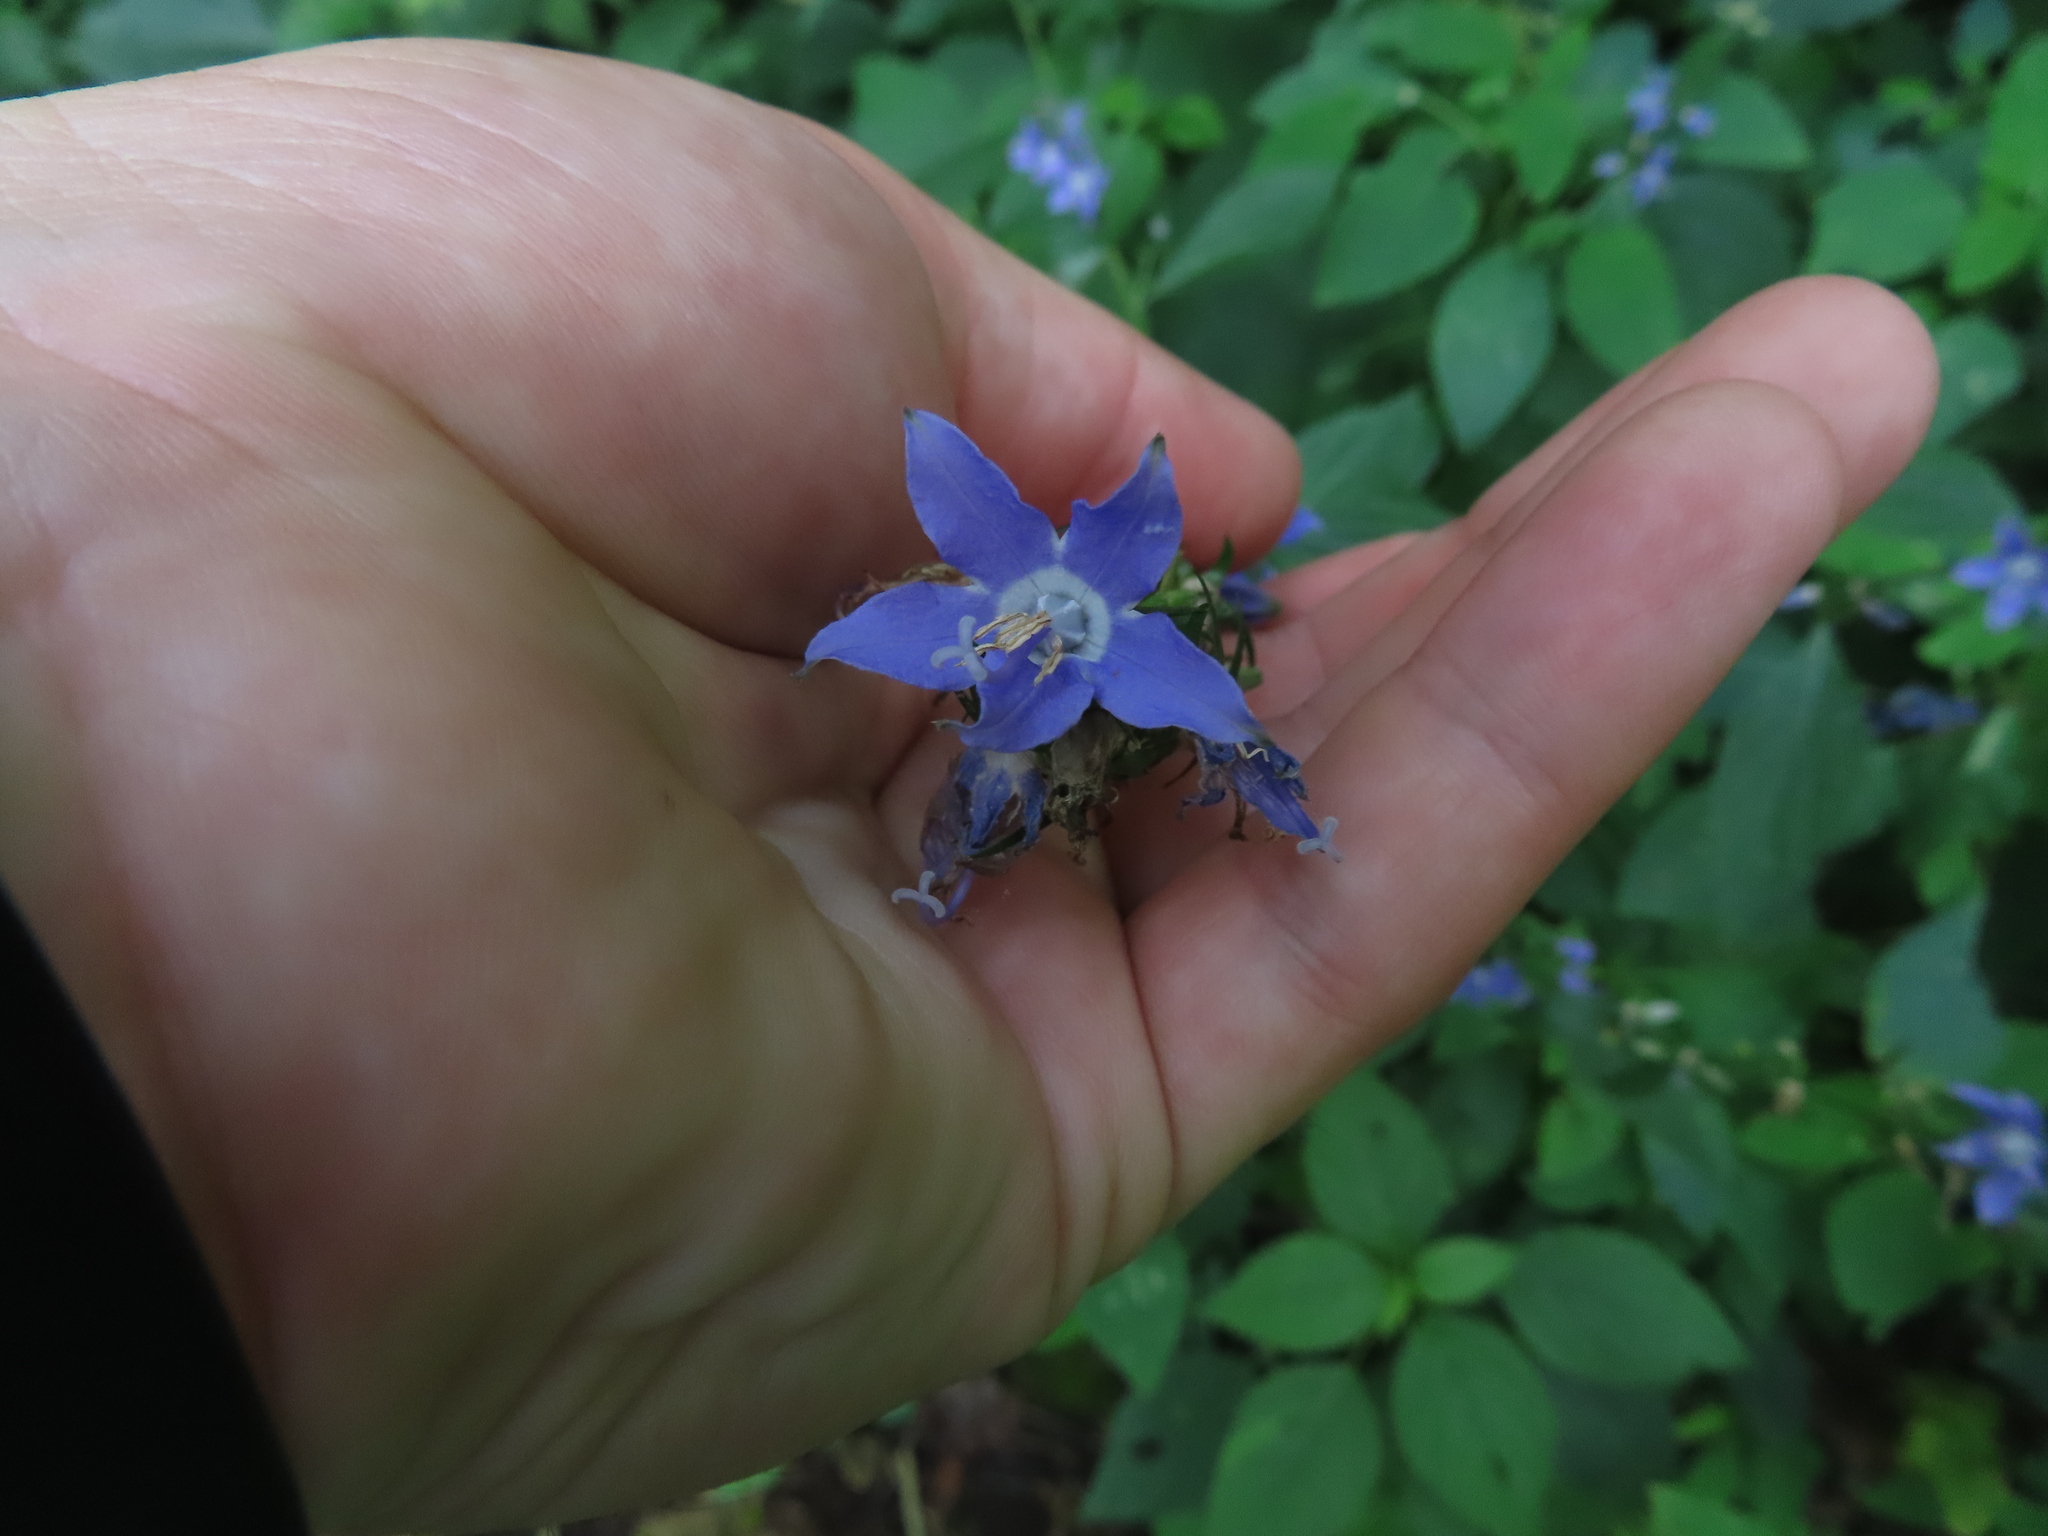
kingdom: Plantae
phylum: Tracheophyta
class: Magnoliopsida
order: Asterales
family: Campanulaceae
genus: Campanulastrum
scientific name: Campanulastrum americanum
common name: American bellflower
